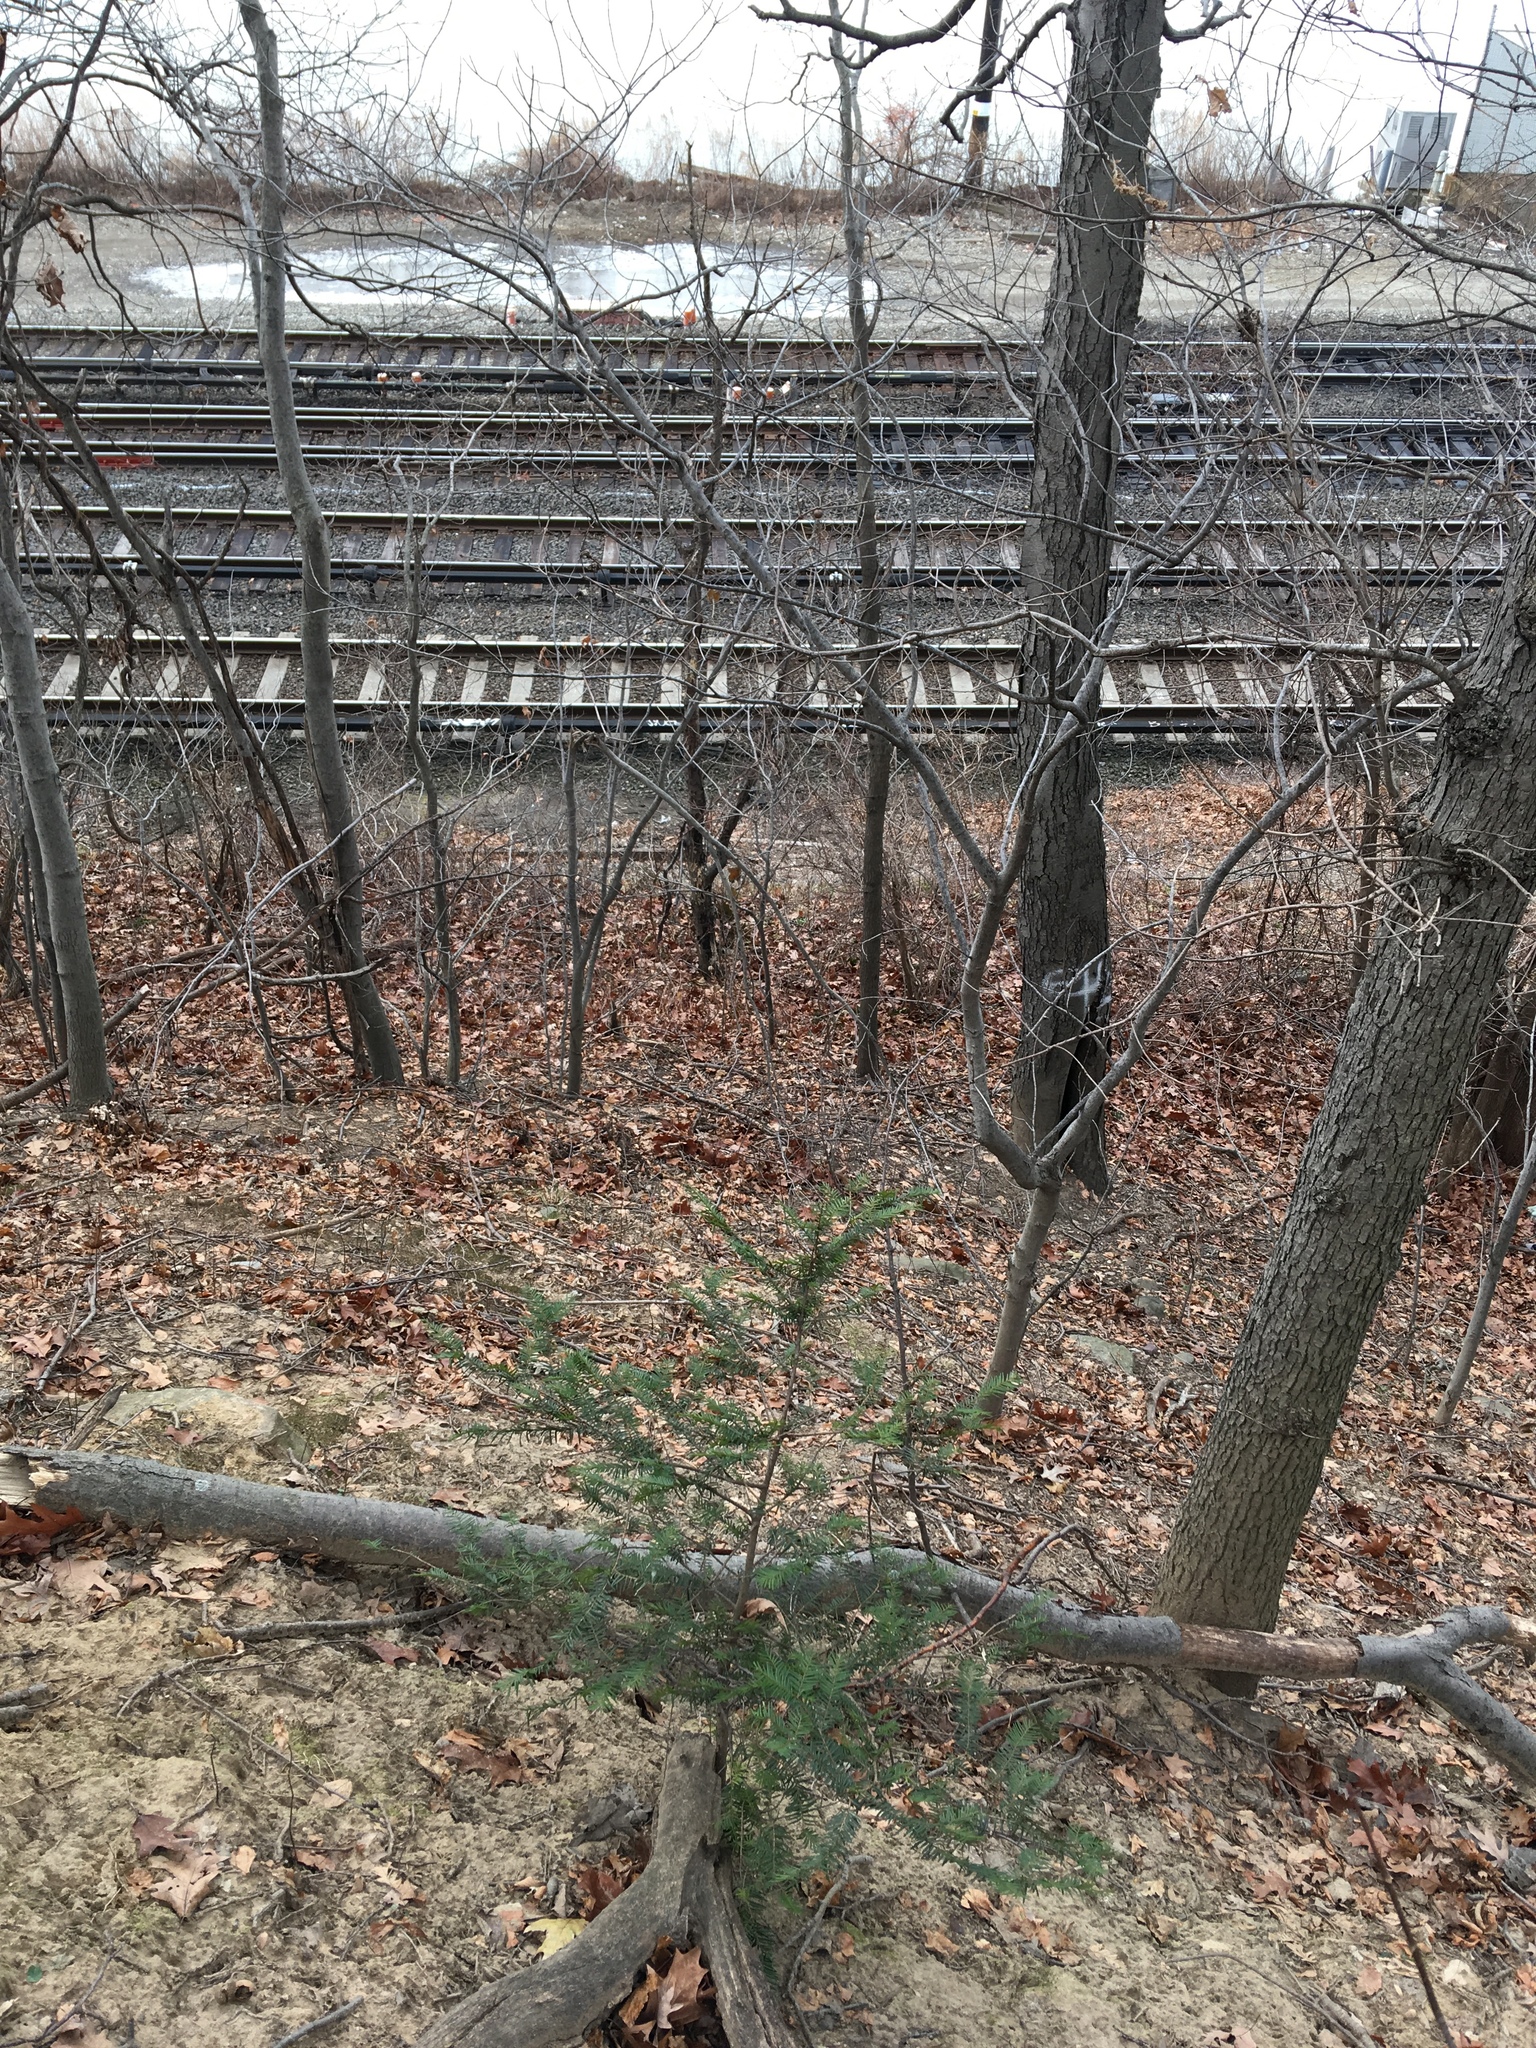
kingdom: Plantae
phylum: Tracheophyta
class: Pinopsida
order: Pinales
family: Taxaceae
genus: Taxus
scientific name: Taxus cuspidata
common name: Japanese yew
